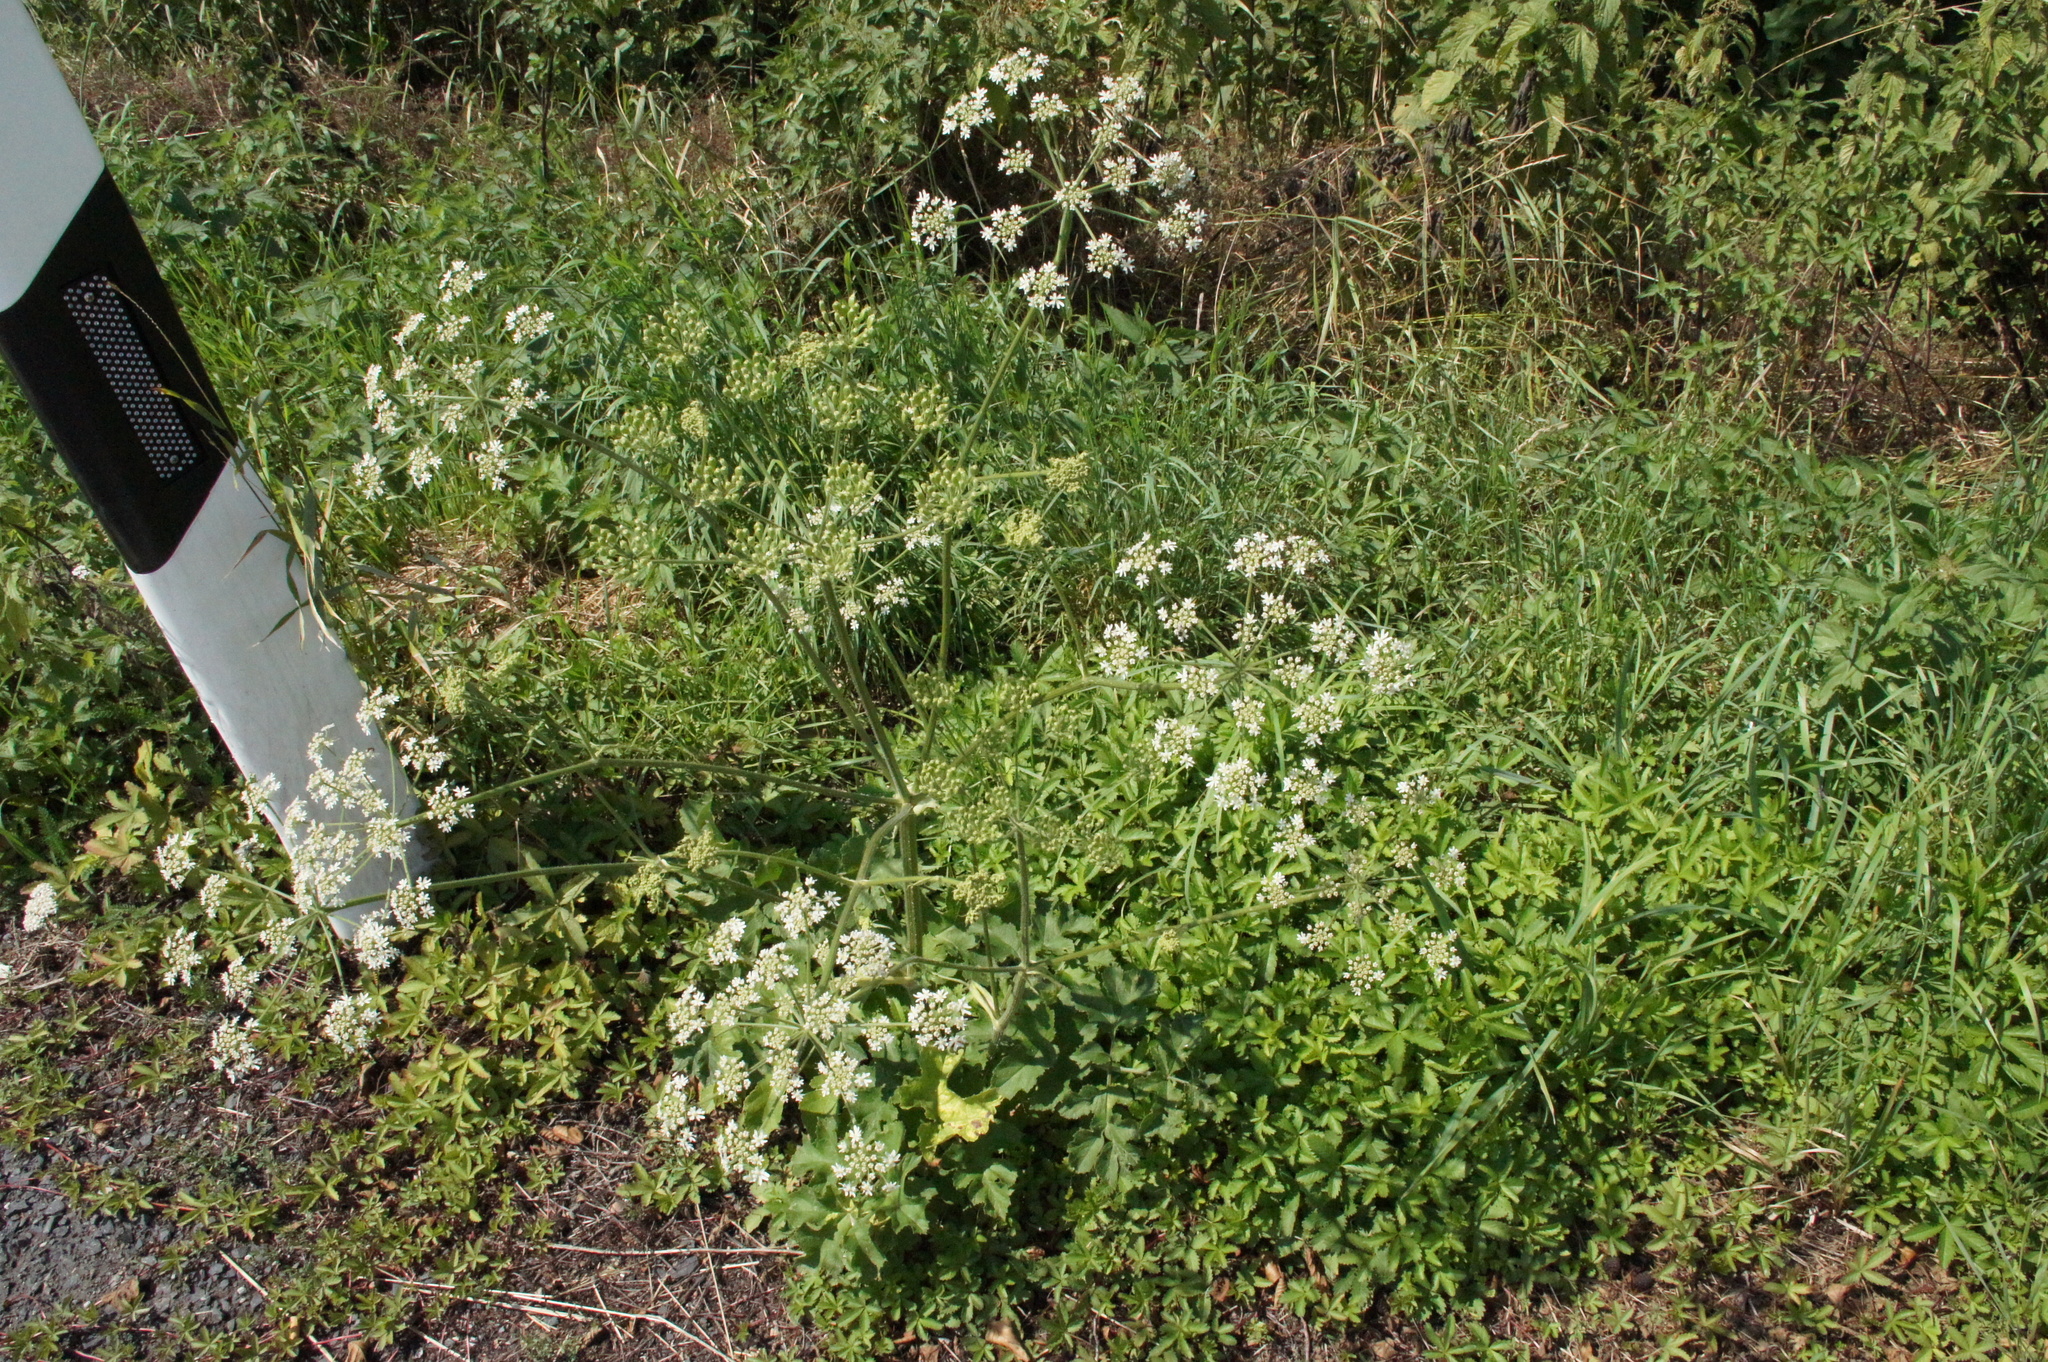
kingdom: Plantae
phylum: Tracheophyta
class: Magnoliopsida
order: Apiales
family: Apiaceae
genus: Heracleum
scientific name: Heracleum sphondylium
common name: Hogweed
